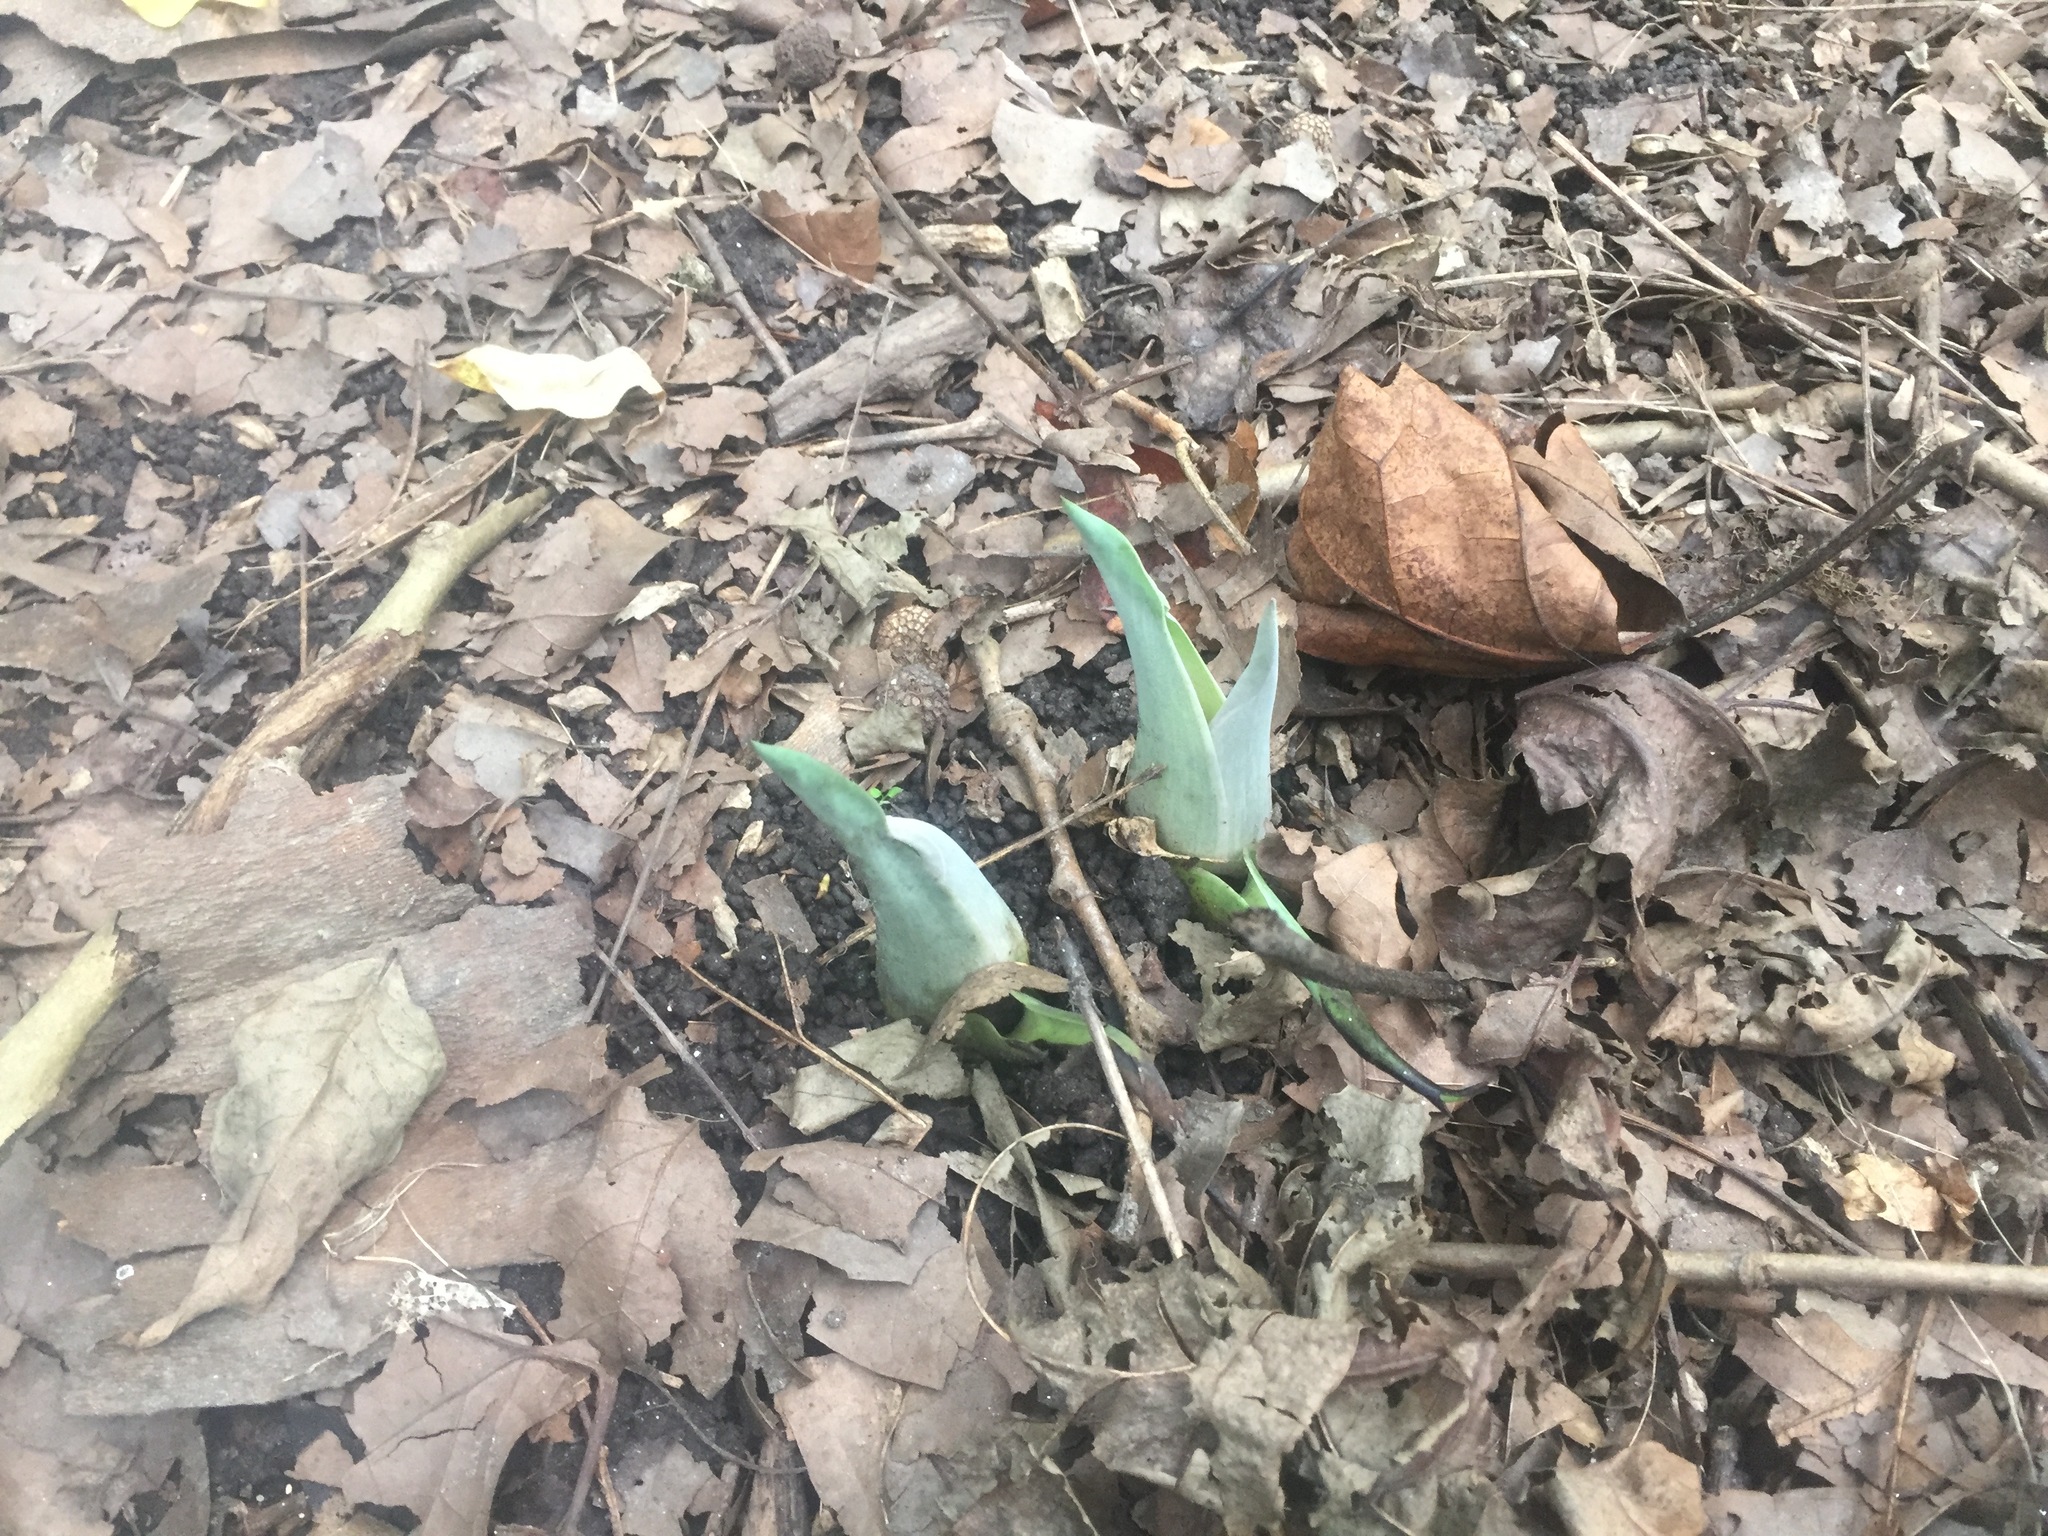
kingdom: Plantae
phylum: Tracheophyta
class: Liliopsida
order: Alismatales
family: Araceae
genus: Symplocarpus
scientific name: Symplocarpus foetidus
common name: Eastern skunk cabbage
